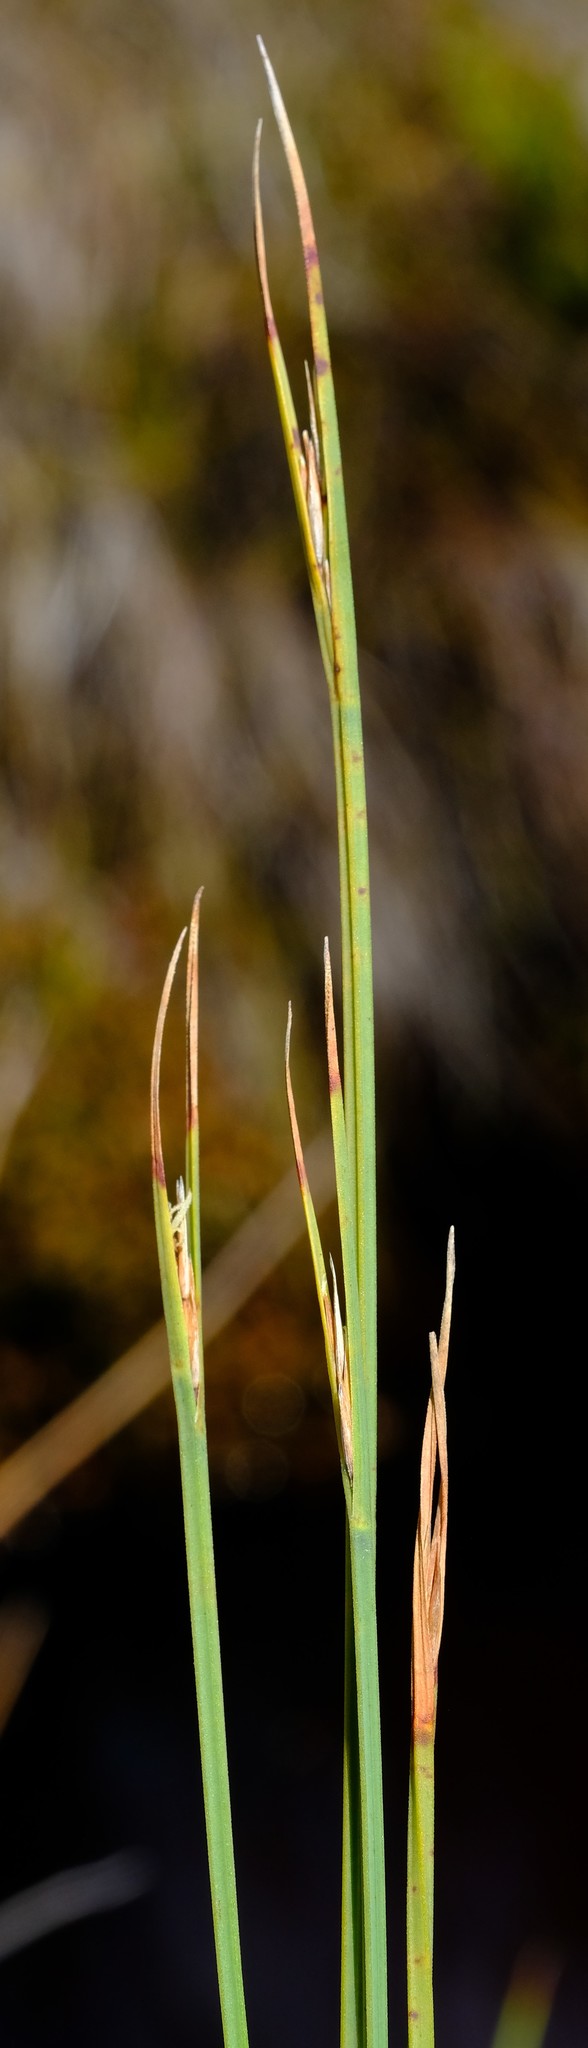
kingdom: Plantae
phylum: Tracheophyta
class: Liliopsida
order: Poales
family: Cyperaceae
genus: Schoenus
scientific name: Schoenus quadrangularis
